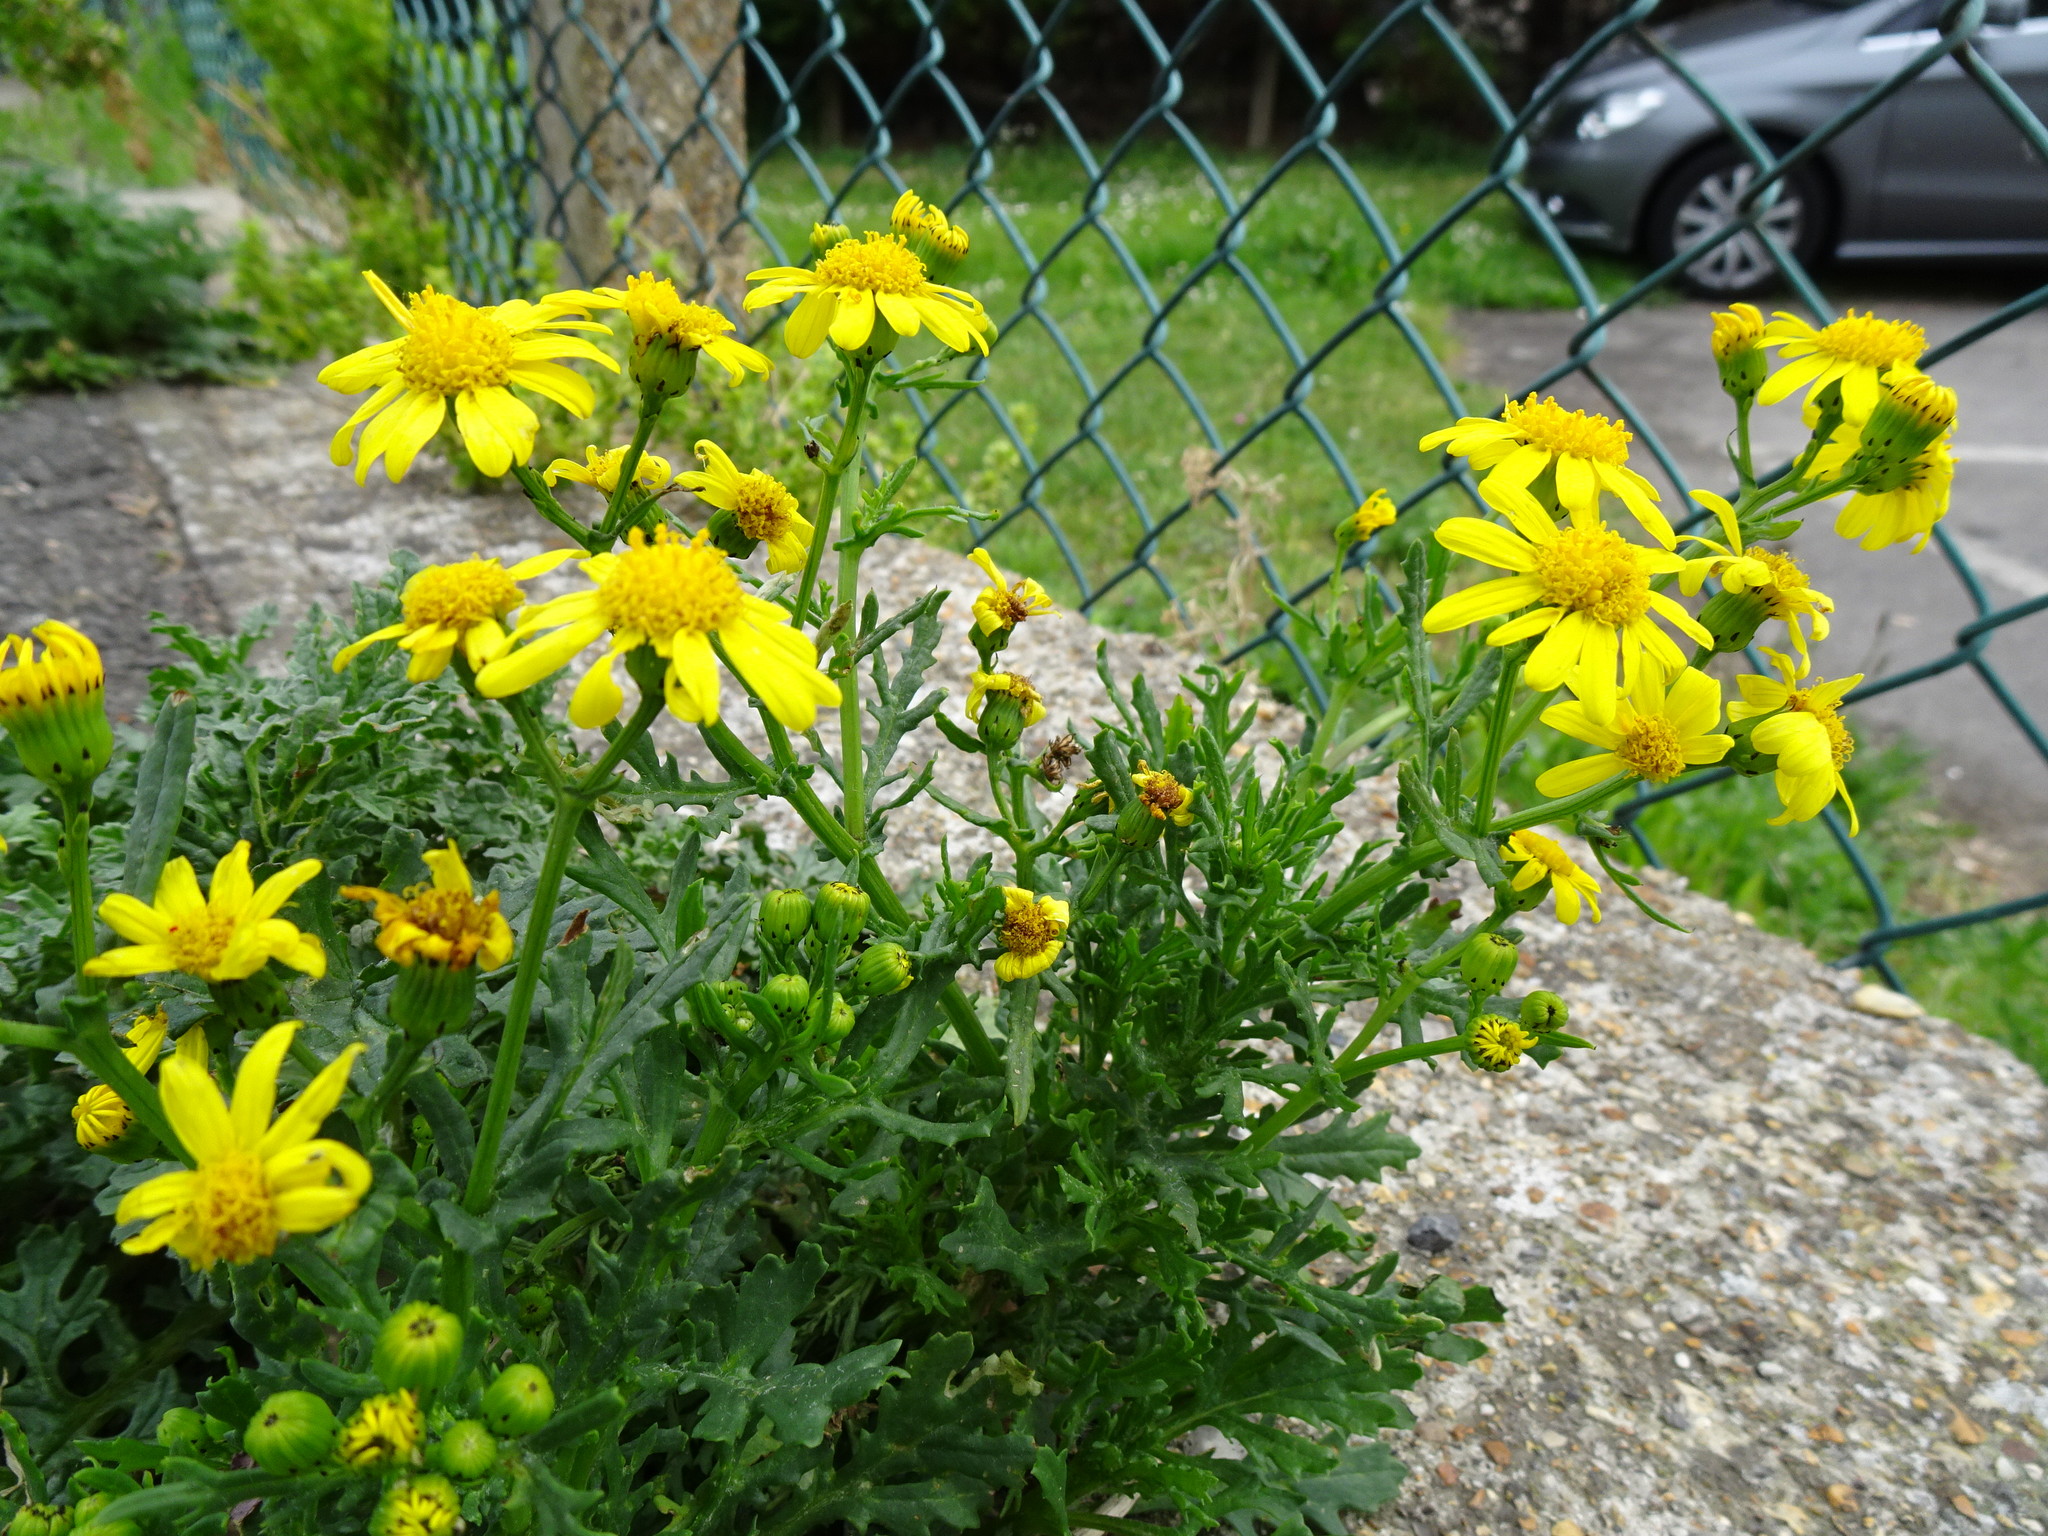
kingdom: Plantae
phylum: Tracheophyta
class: Magnoliopsida
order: Asterales
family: Asteraceae
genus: Senecio
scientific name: Senecio squalidus
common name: Oxford ragwort
